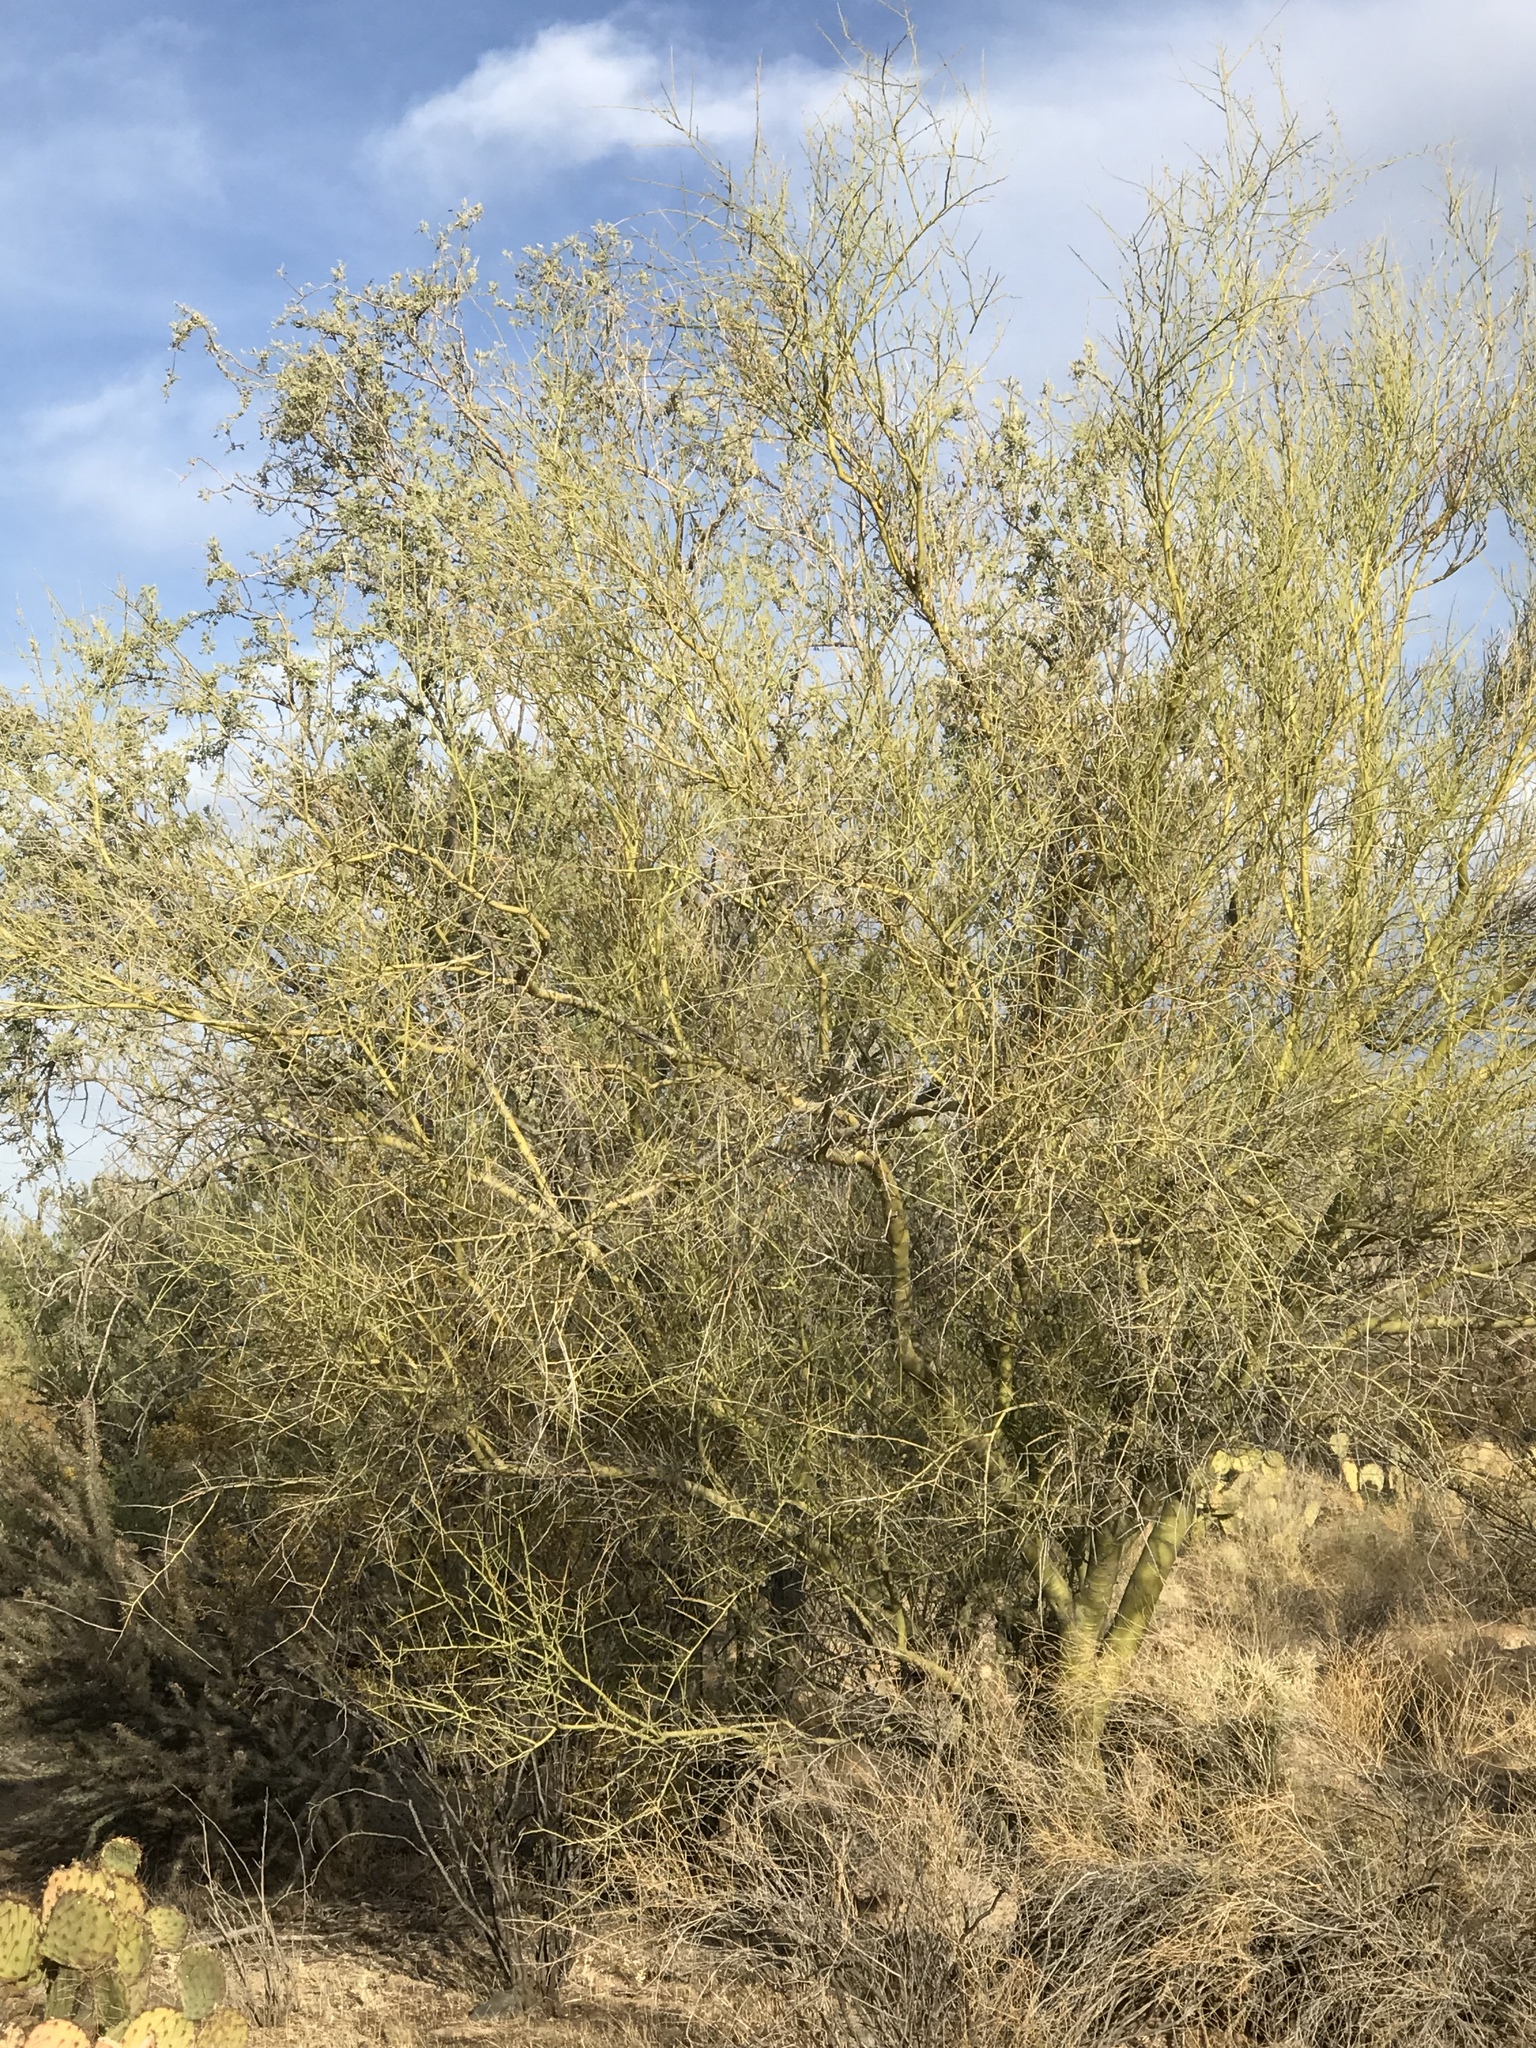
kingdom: Plantae
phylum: Tracheophyta
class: Magnoliopsida
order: Fabales
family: Fabaceae
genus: Parkinsonia
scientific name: Parkinsonia microphylla
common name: Yellow paloverde
